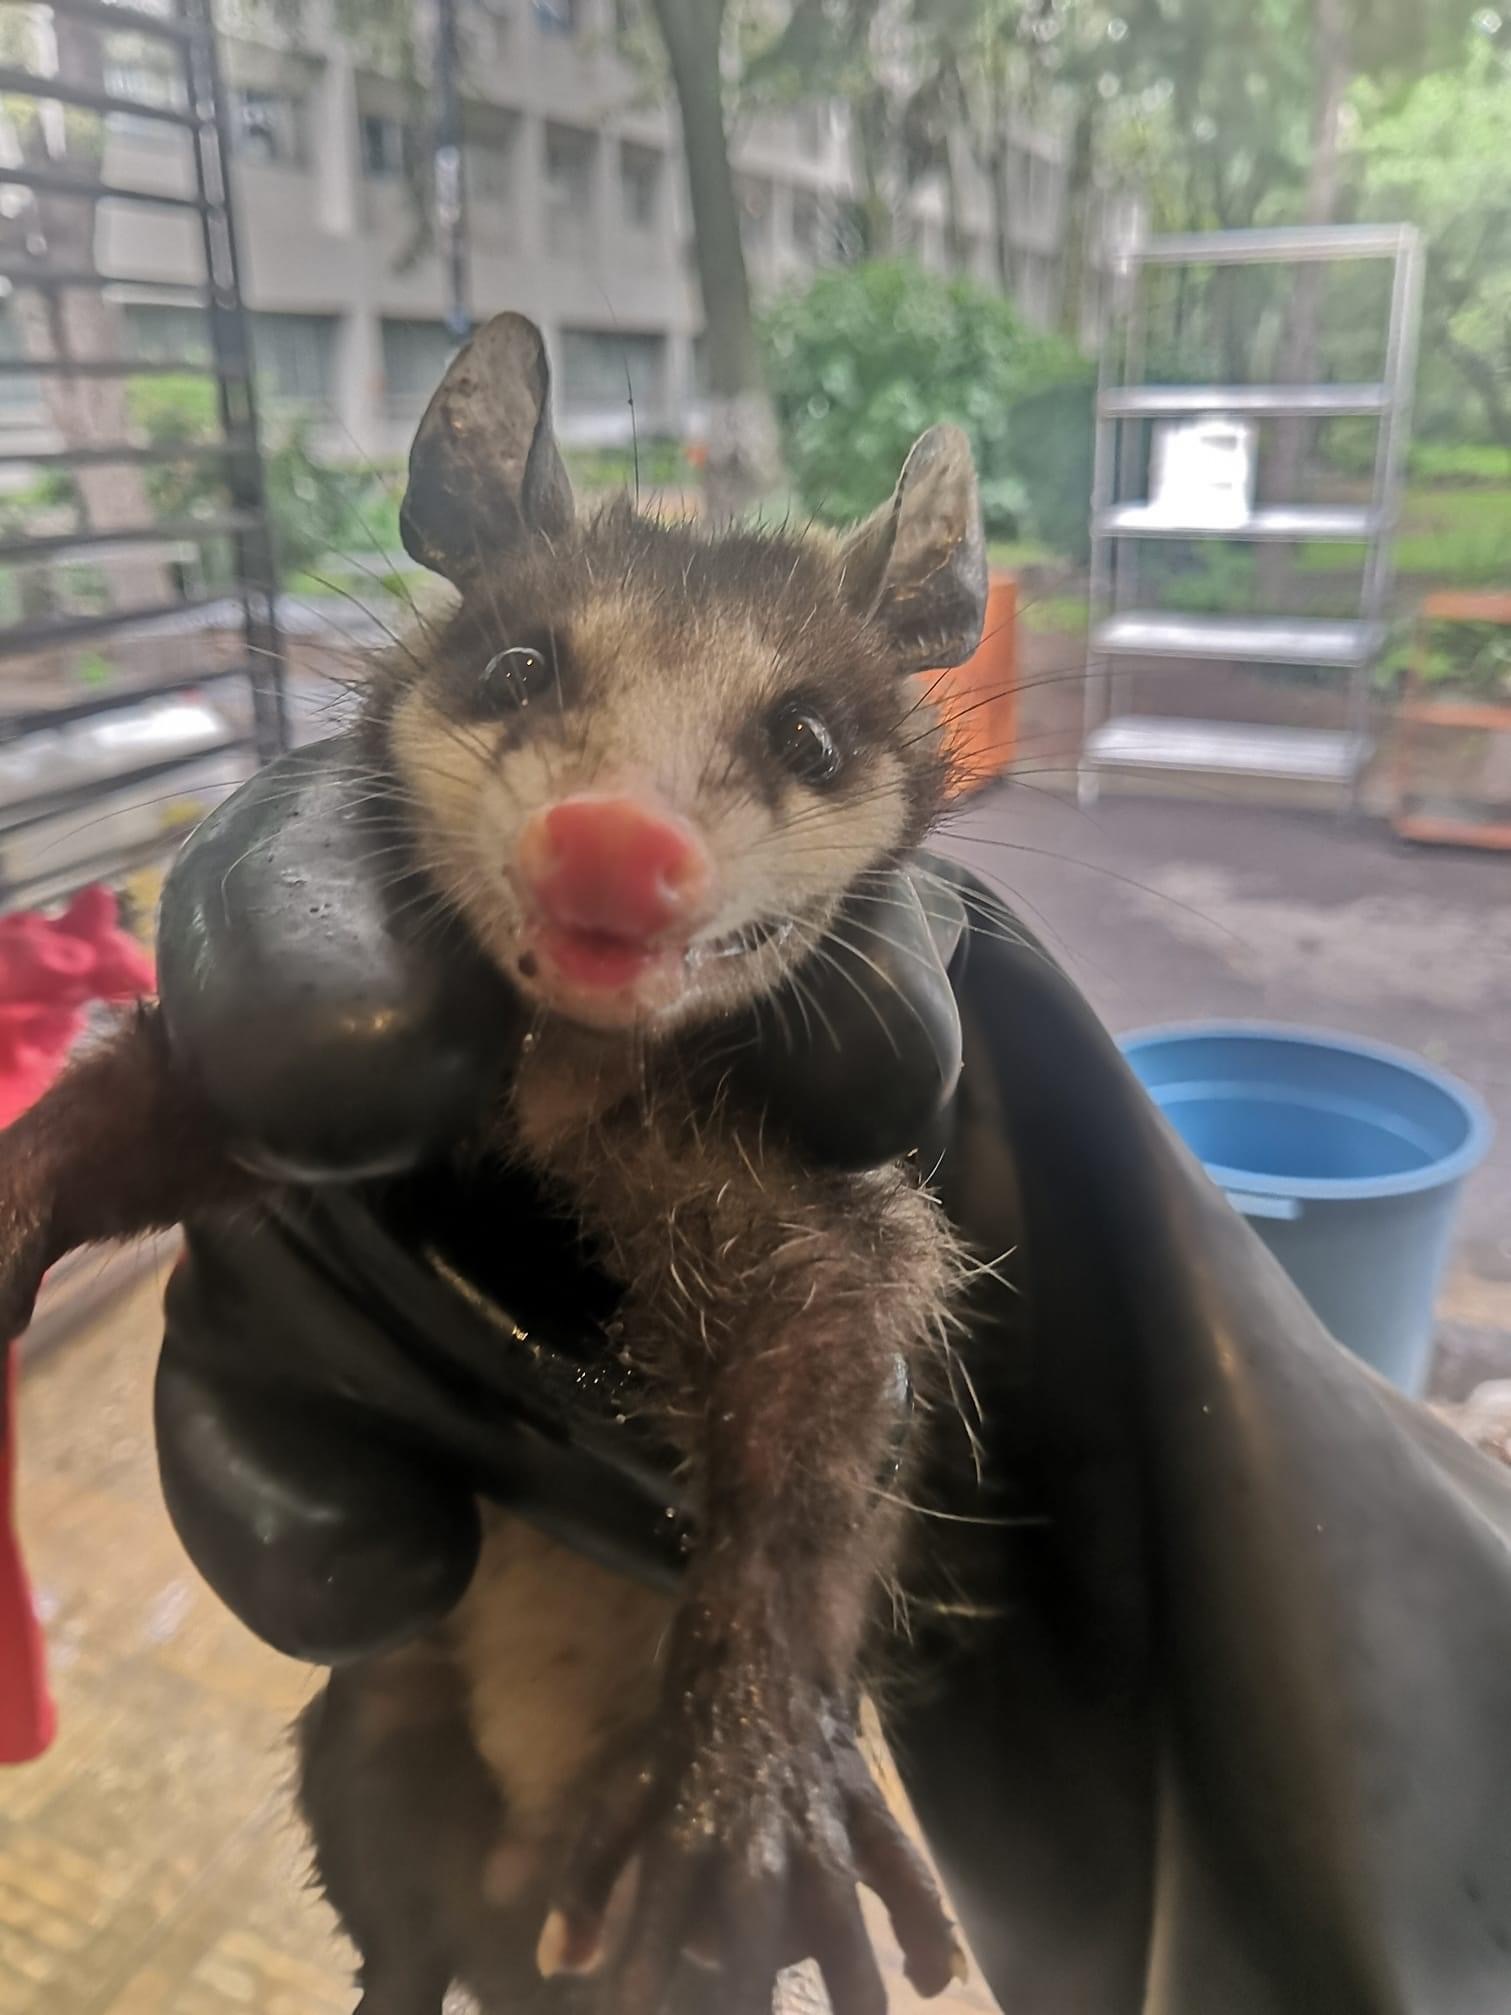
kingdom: Animalia
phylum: Chordata
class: Mammalia
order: Didelphimorphia
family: Didelphidae
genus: Didelphis
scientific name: Didelphis virginiana
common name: Virginia opossum
